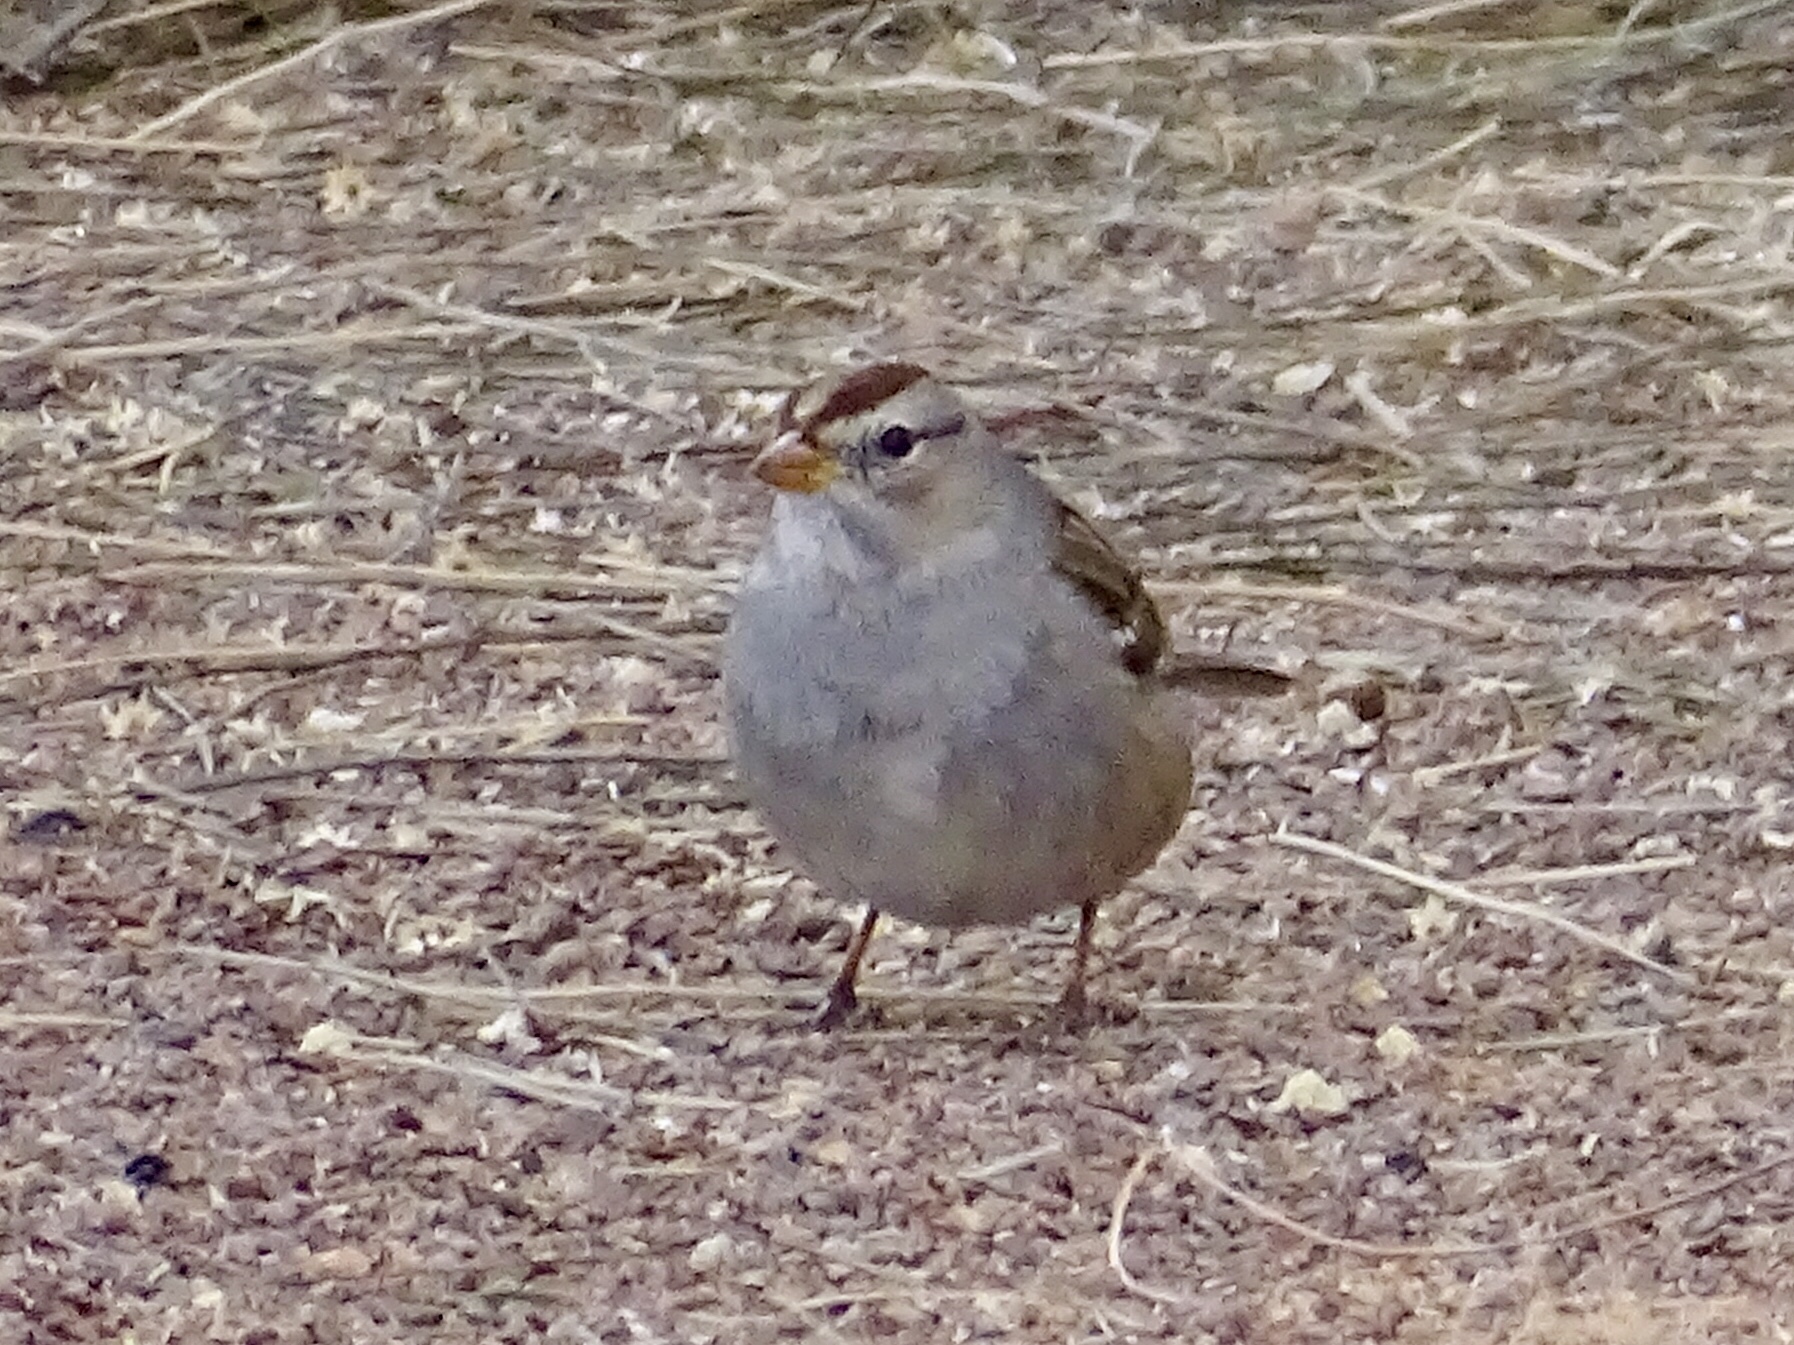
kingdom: Animalia
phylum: Chordata
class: Aves
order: Passeriformes
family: Passerellidae
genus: Zonotrichia
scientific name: Zonotrichia leucophrys
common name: White-crowned sparrow
